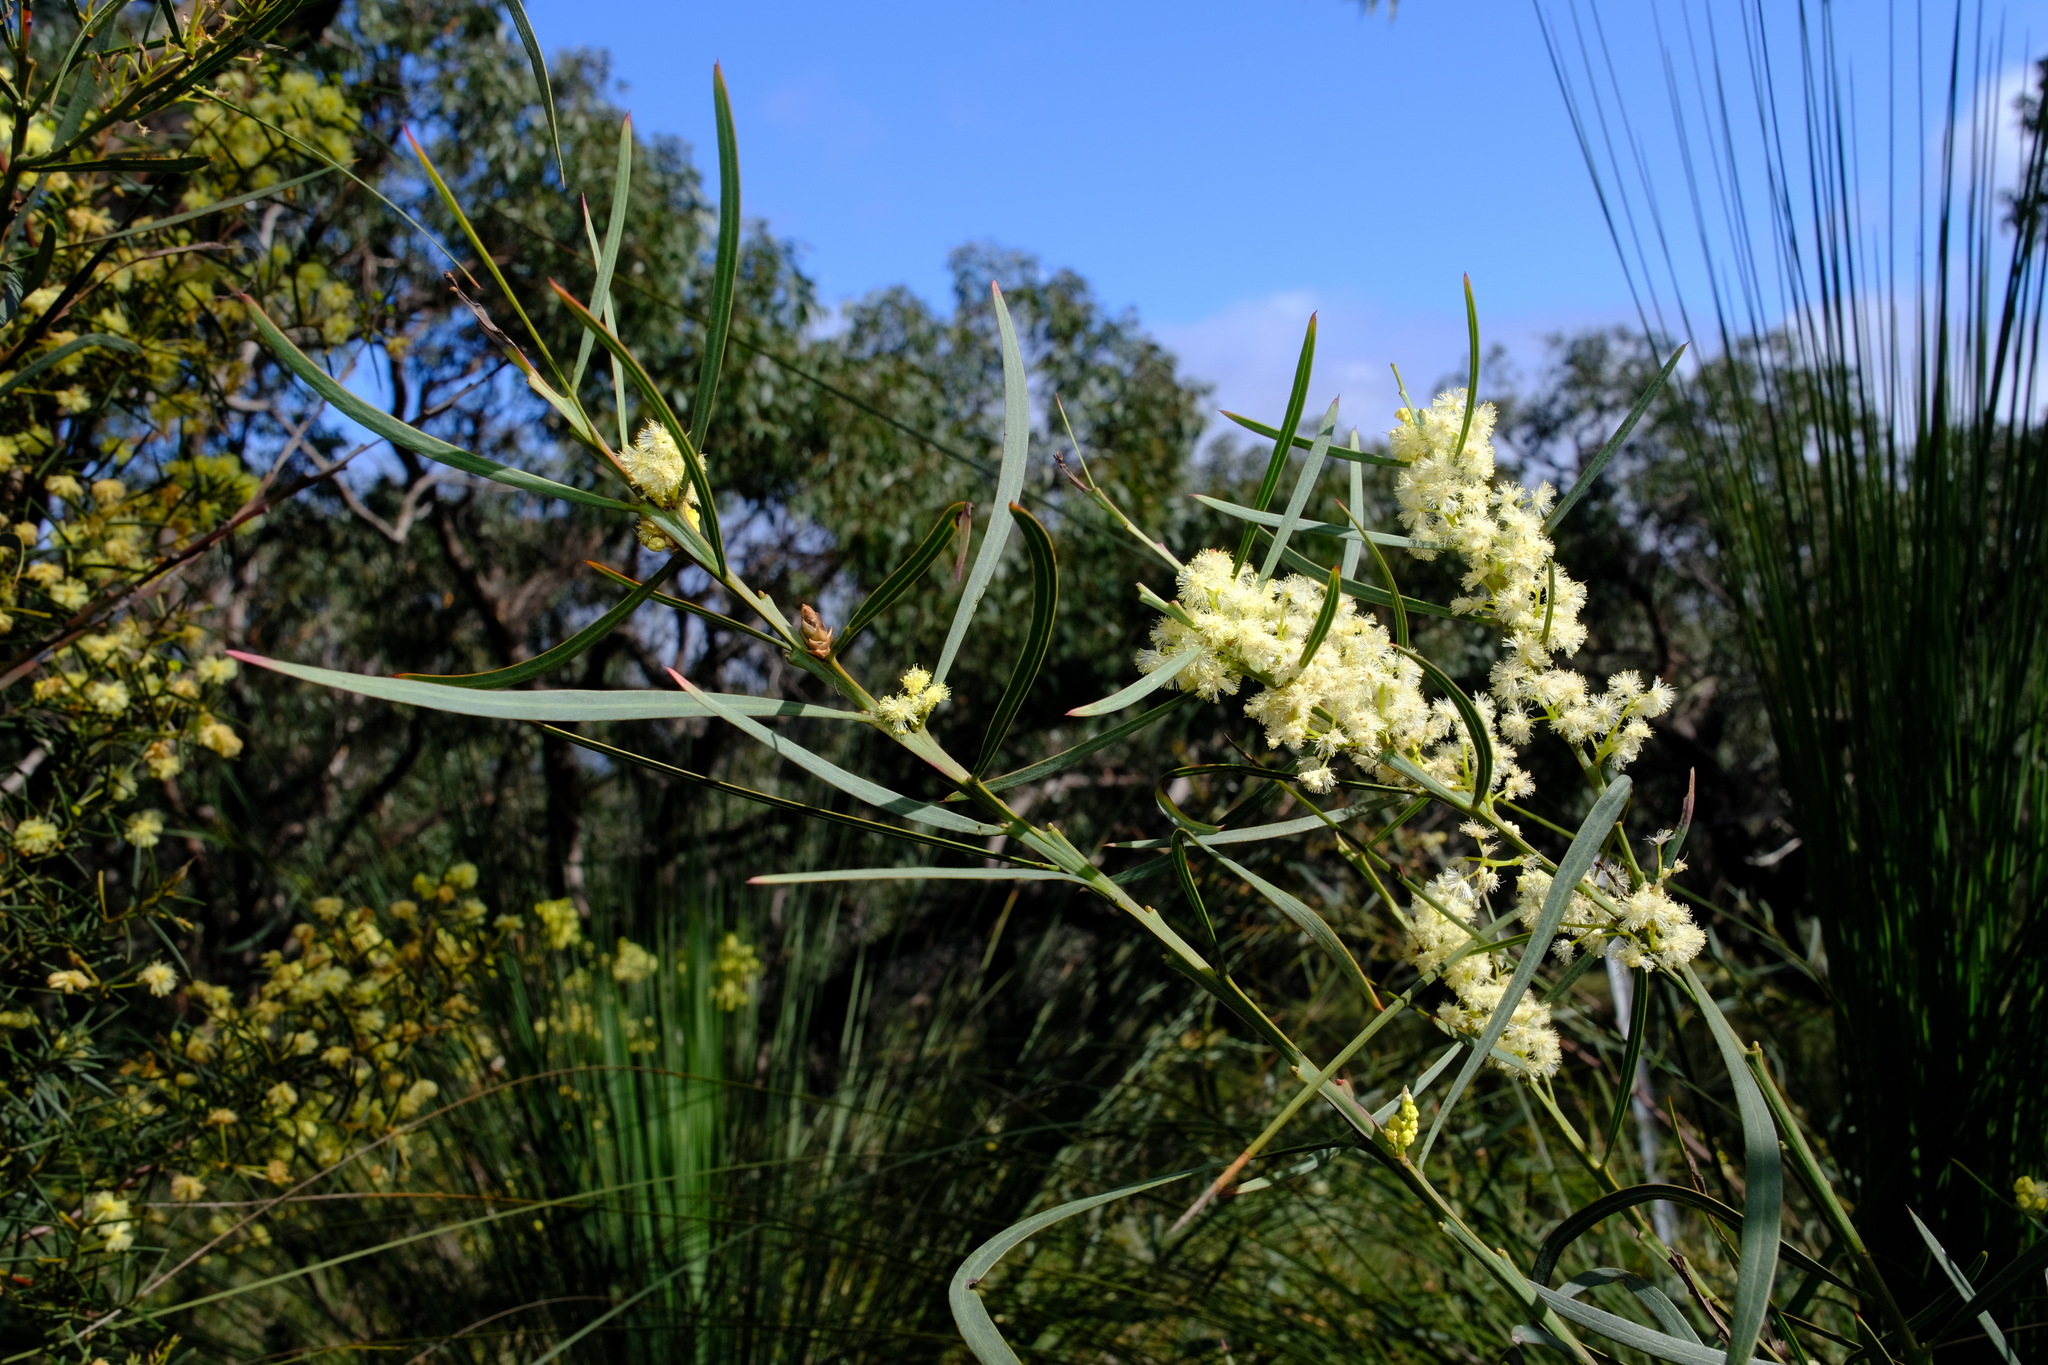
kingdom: Plantae
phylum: Tracheophyta
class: Magnoliopsida
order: Fabales
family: Fabaceae
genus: Acacia
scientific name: Acacia suaveolens
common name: Sweet acacia
